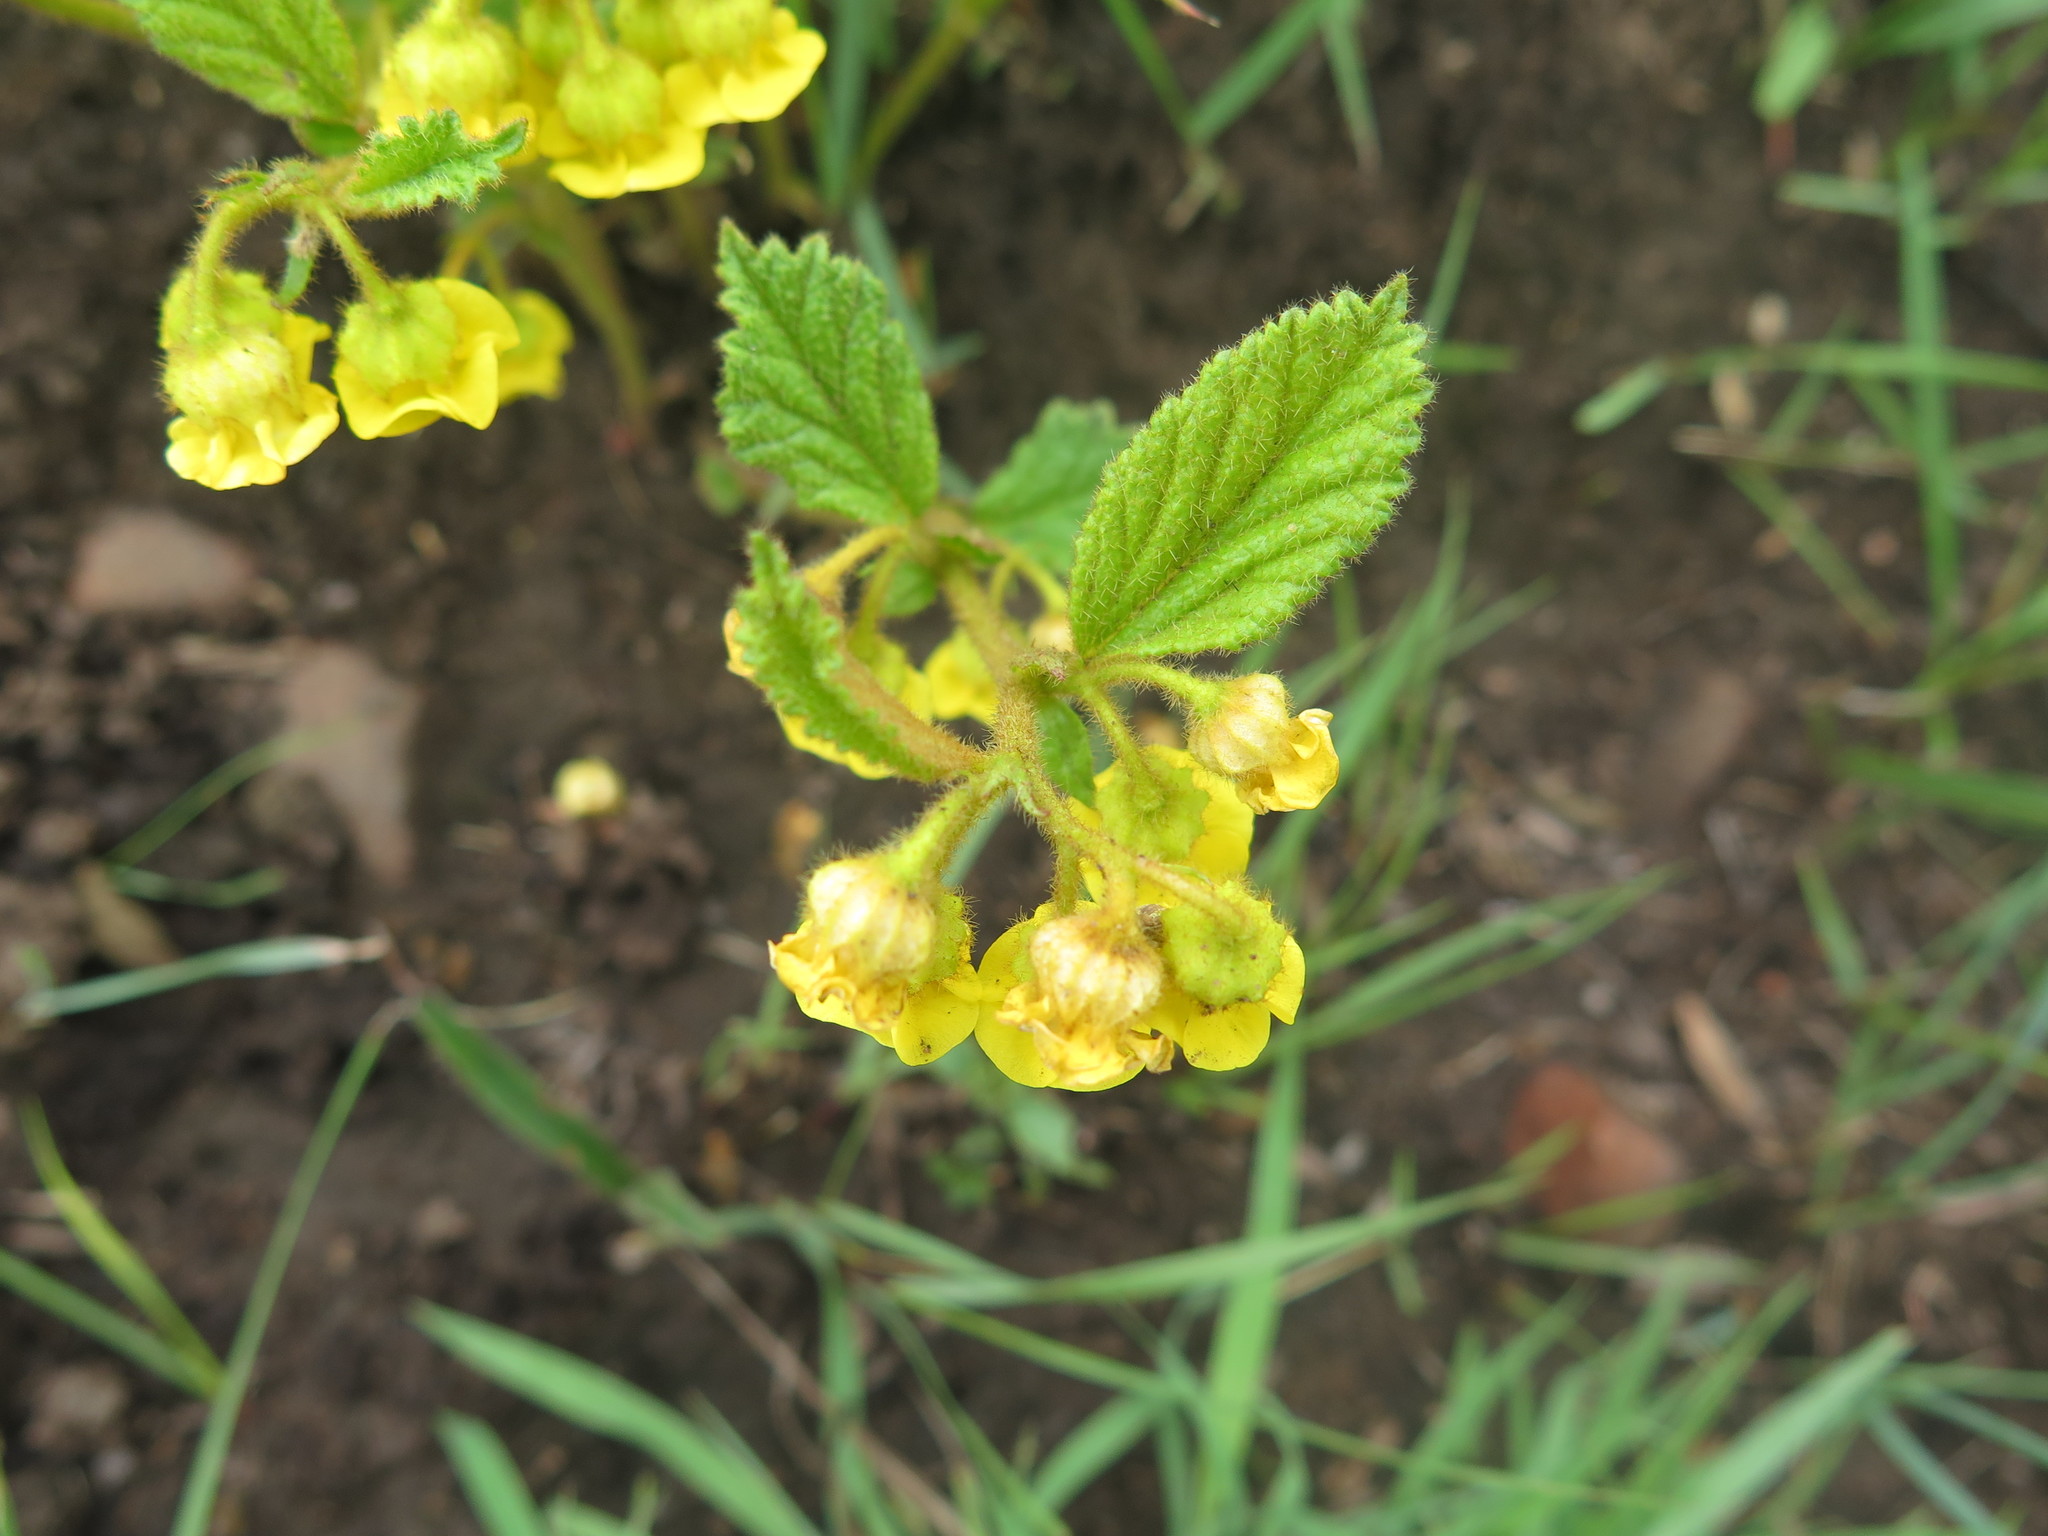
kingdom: Plantae
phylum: Tracheophyta
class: Magnoliopsida
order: Malvales
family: Malvaceae
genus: Hermannia
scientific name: Hermannia sandersonii
